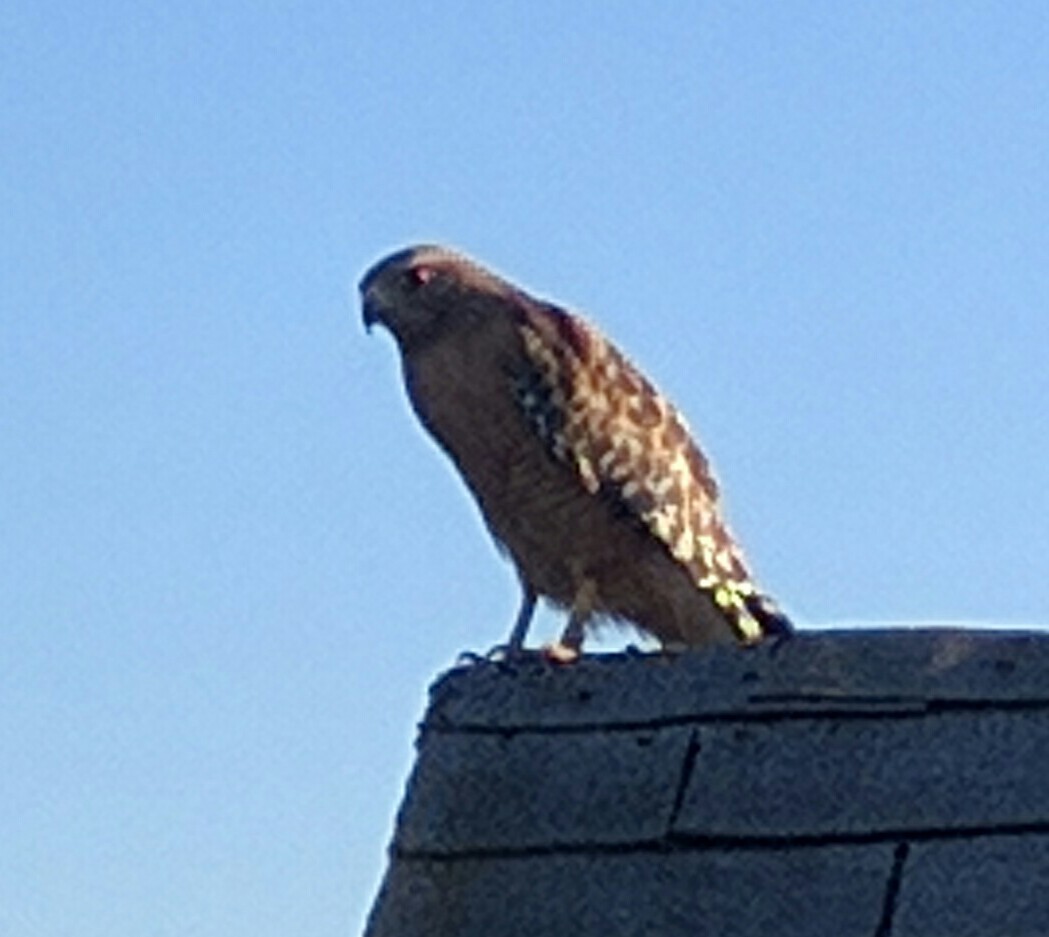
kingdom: Animalia
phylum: Chordata
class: Aves
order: Accipitriformes
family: Accipitridae
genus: Buteo
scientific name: Buteo lineatus
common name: Red-shouldered hawk
